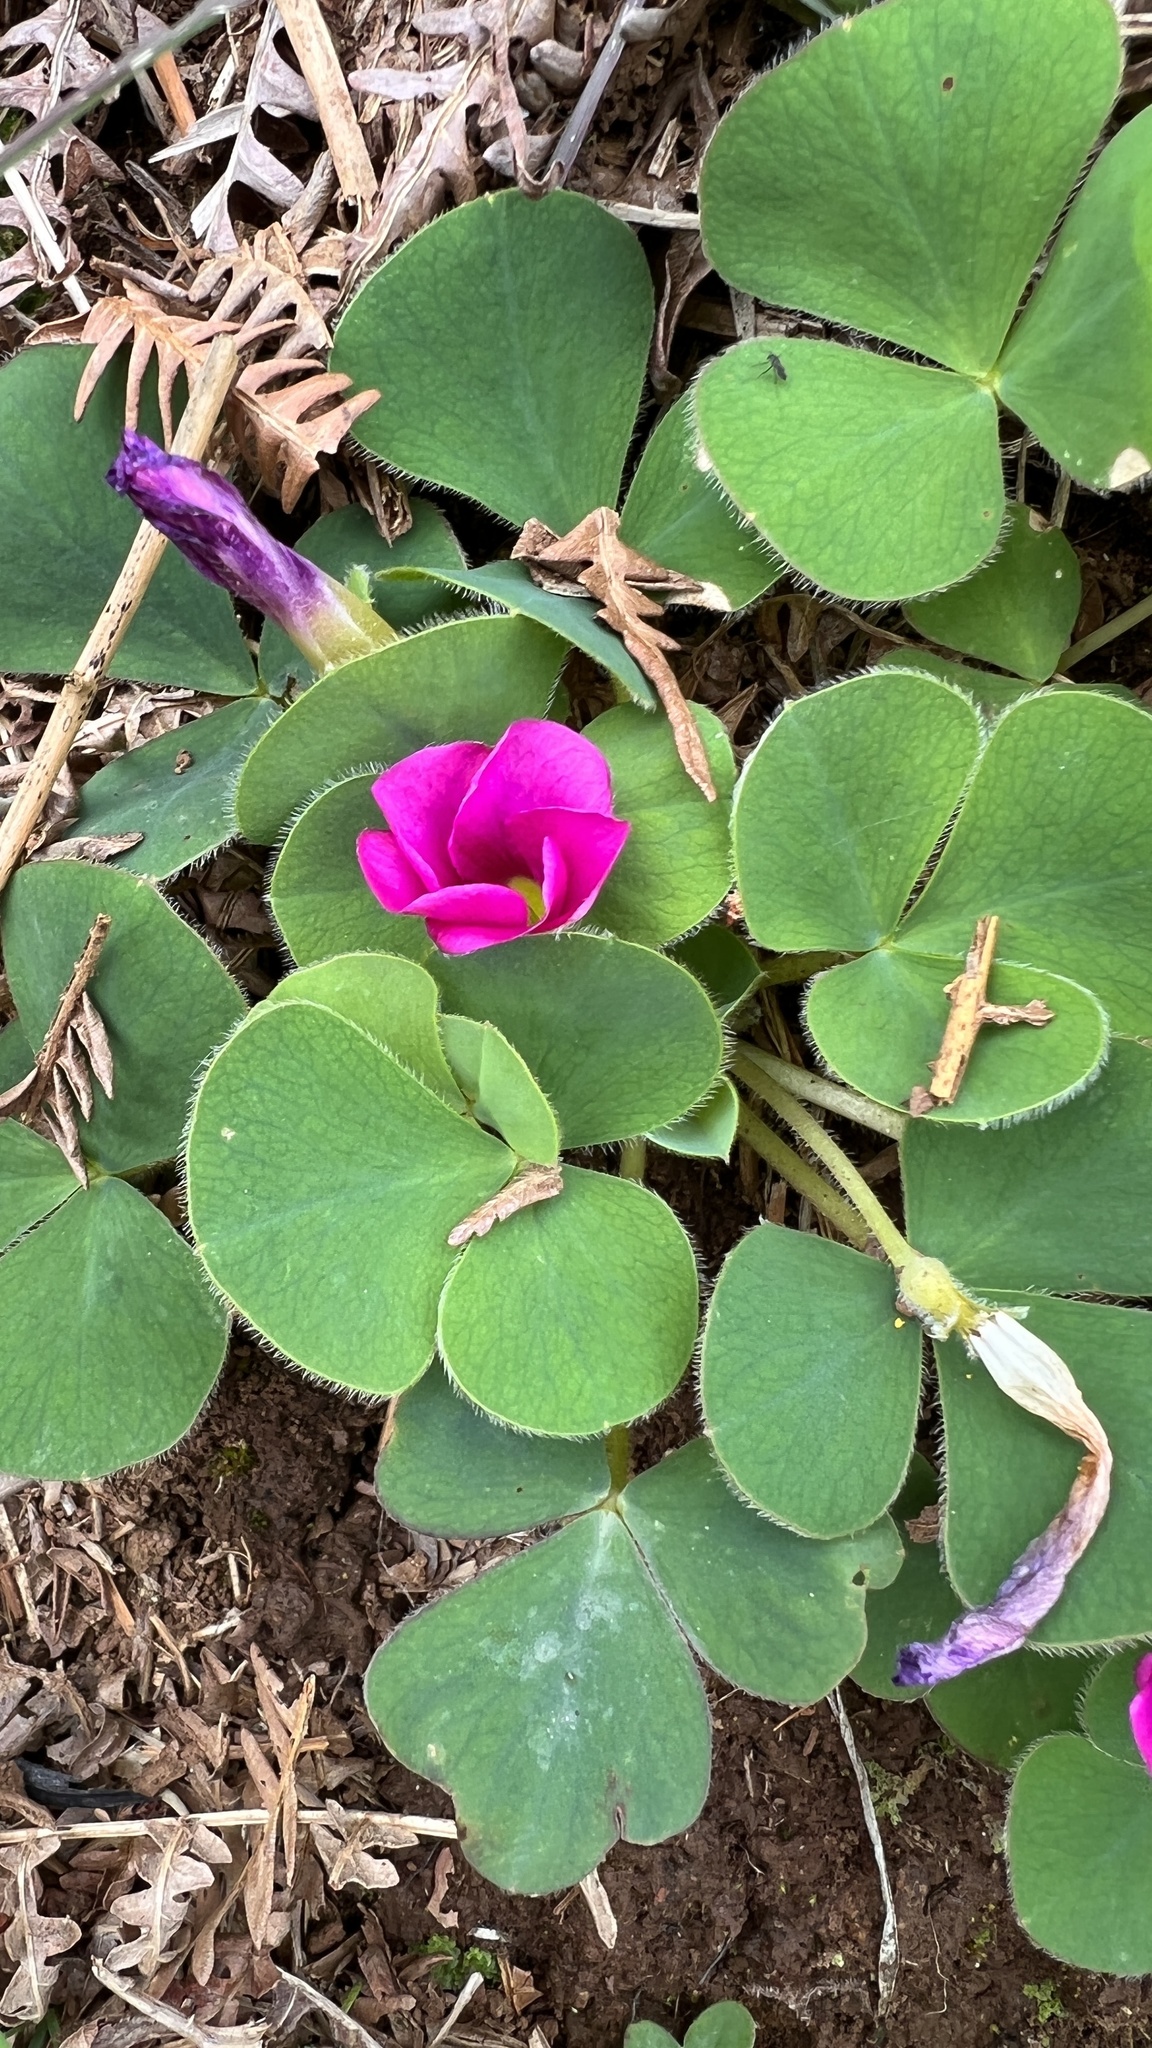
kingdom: Plantae
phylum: Tracheophyta
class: Magnoliopsida
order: Oxalidales
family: Oxalidaceae
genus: Oxalis
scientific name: Oxalis purpurea
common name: Purple woodsorrel
